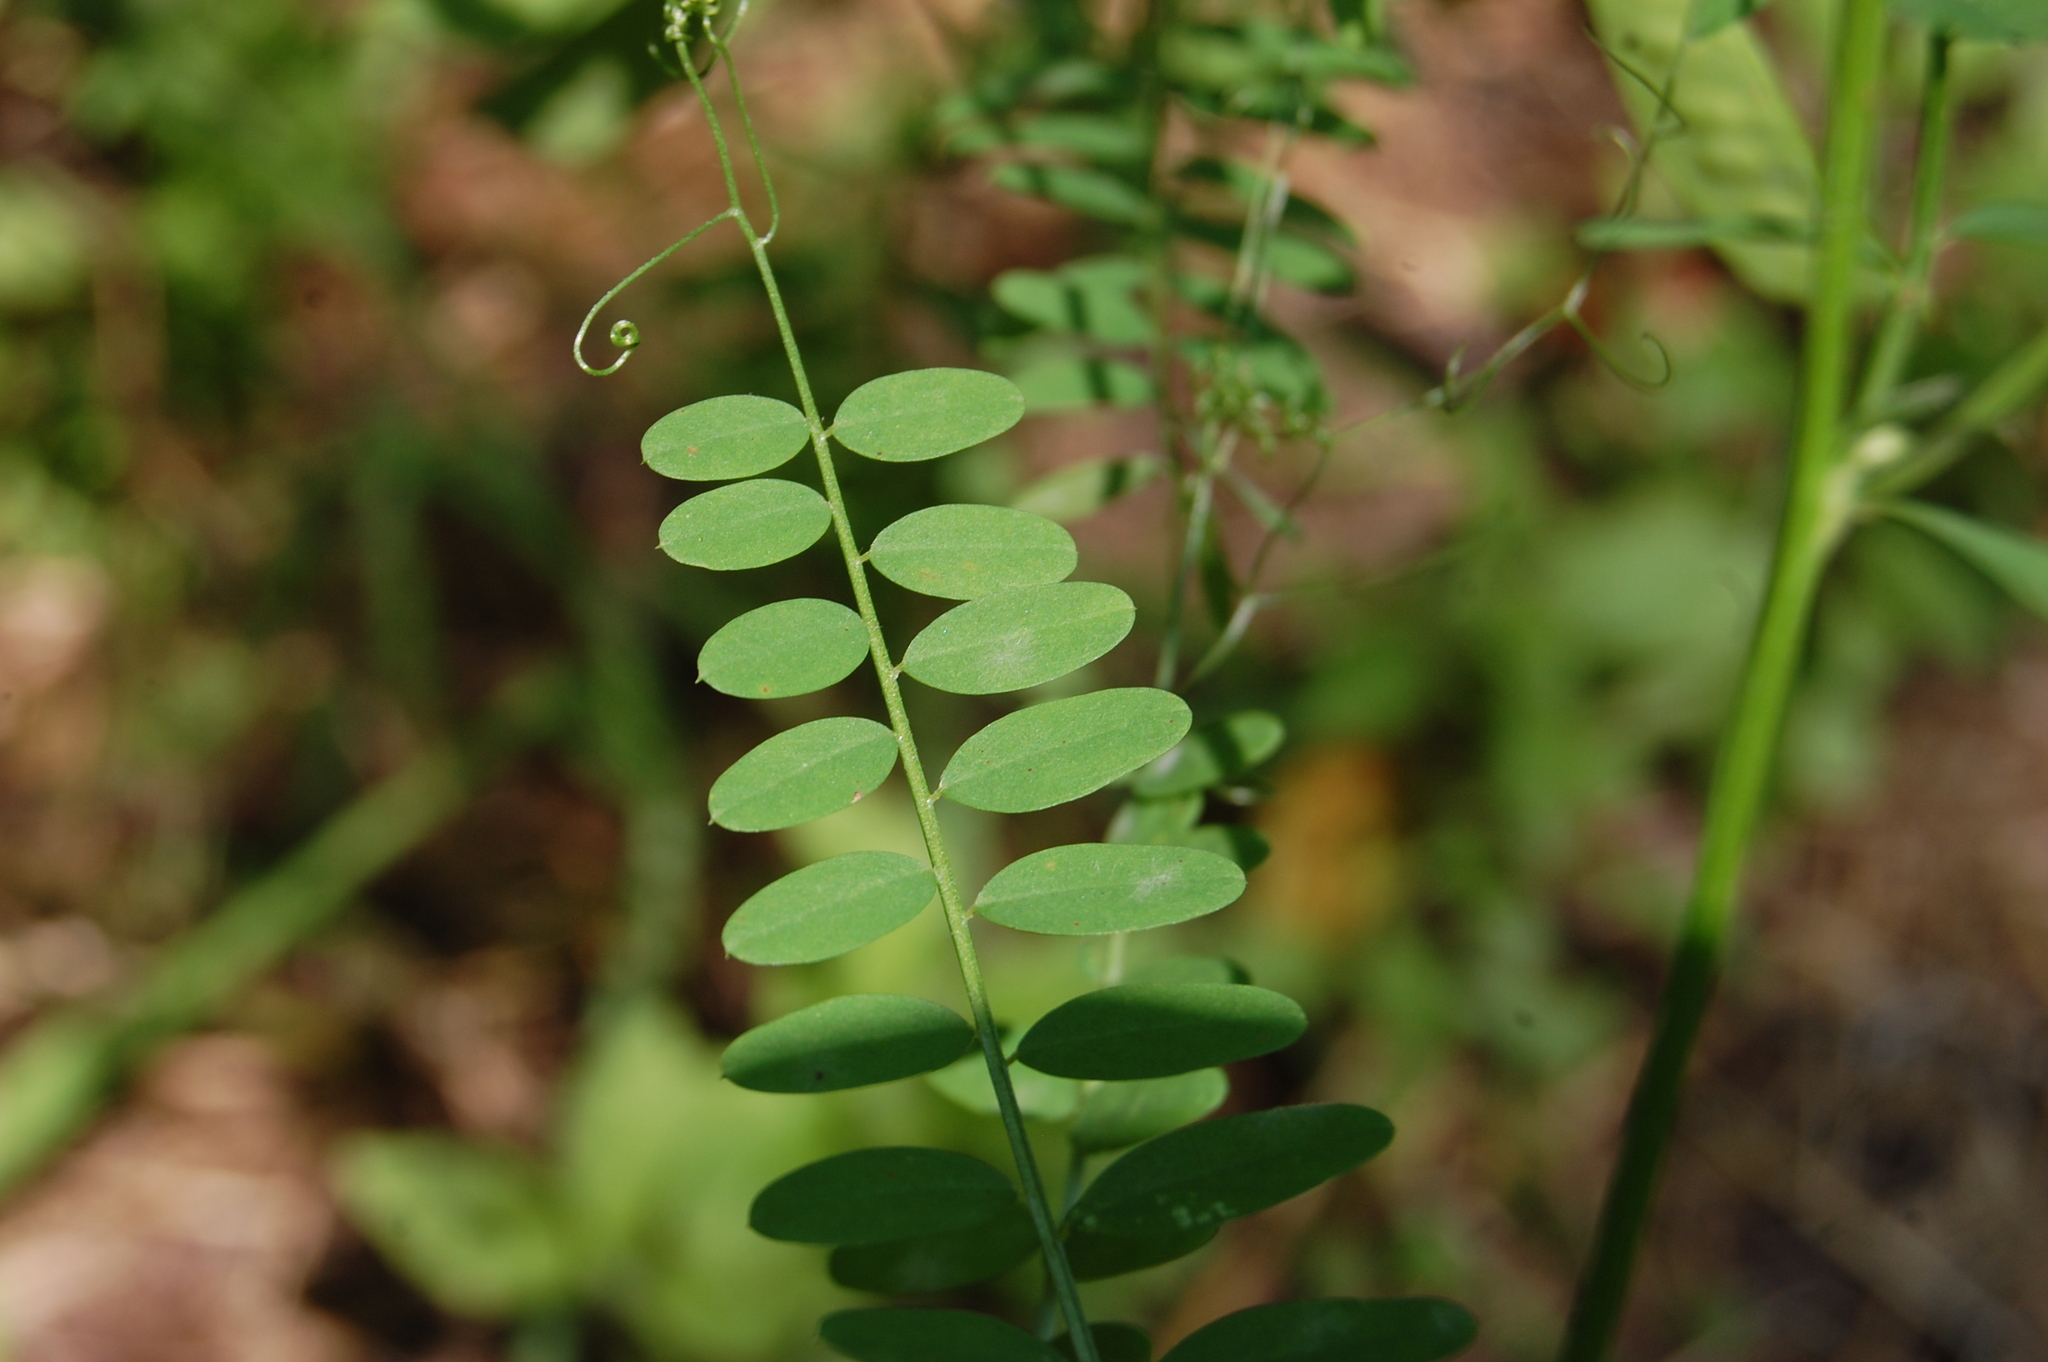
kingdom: Plantae
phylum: Tracheophyta
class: Magnoliopsida
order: Fabales
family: Fabaceae
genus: Vicia
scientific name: Vicia villosa
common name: Fodder vetch
